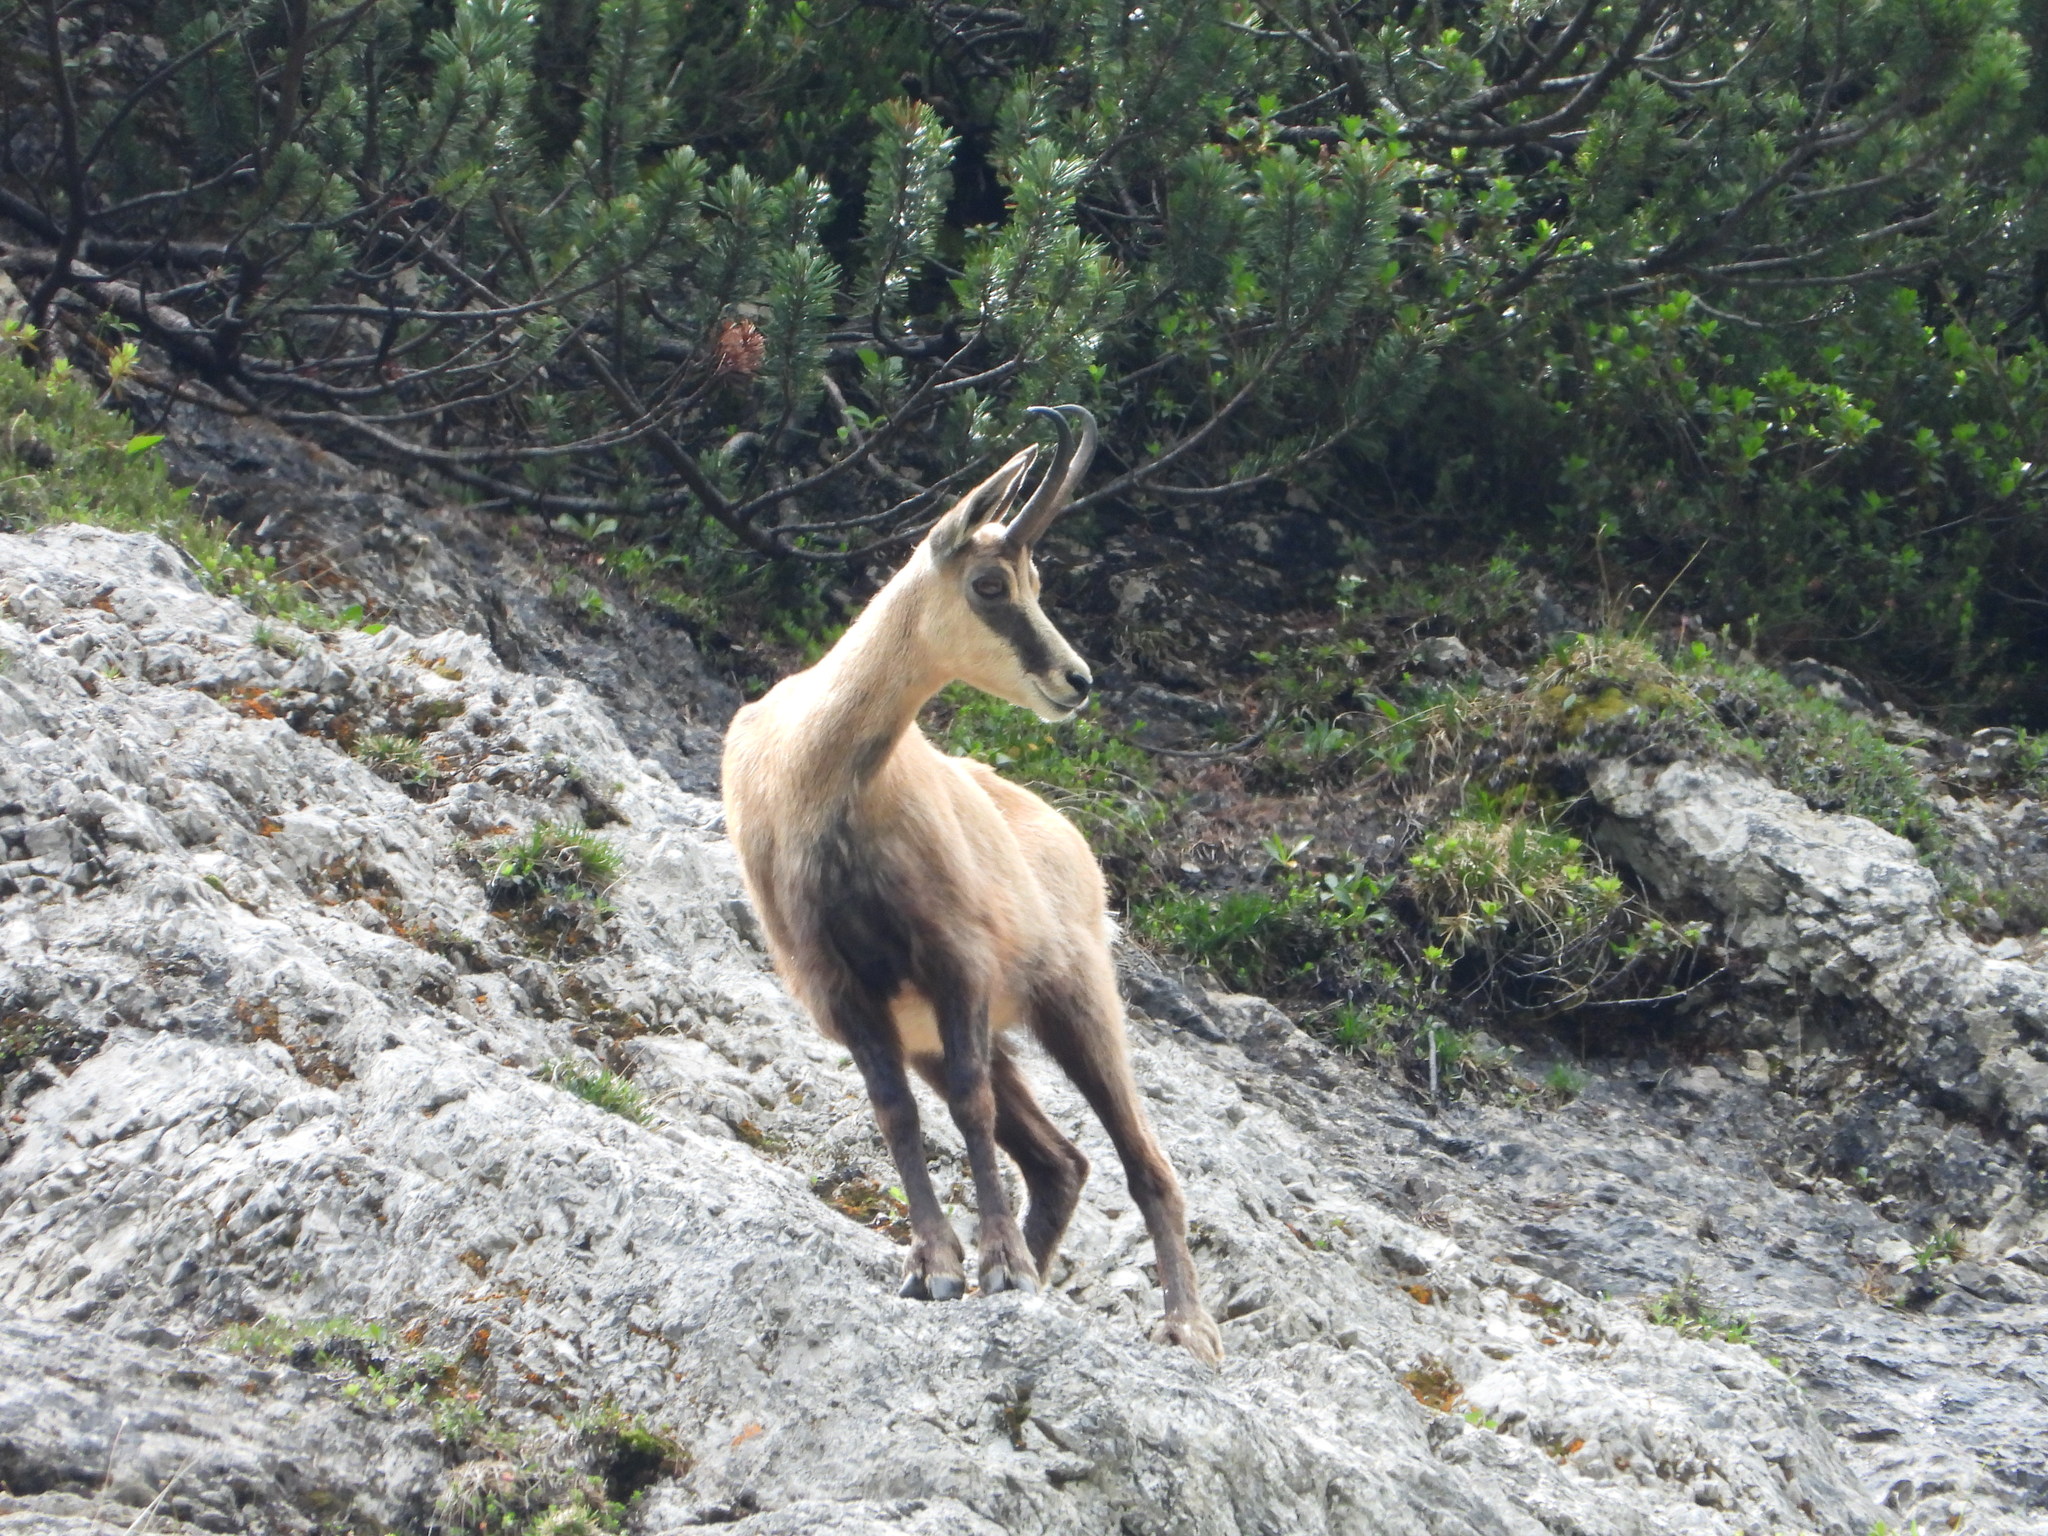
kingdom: Animalia
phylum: Chordata
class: Mammalia
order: Artiodactyla
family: Bovidae
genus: Rupicapra
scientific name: Rupicapra rupicapra
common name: Chamois
